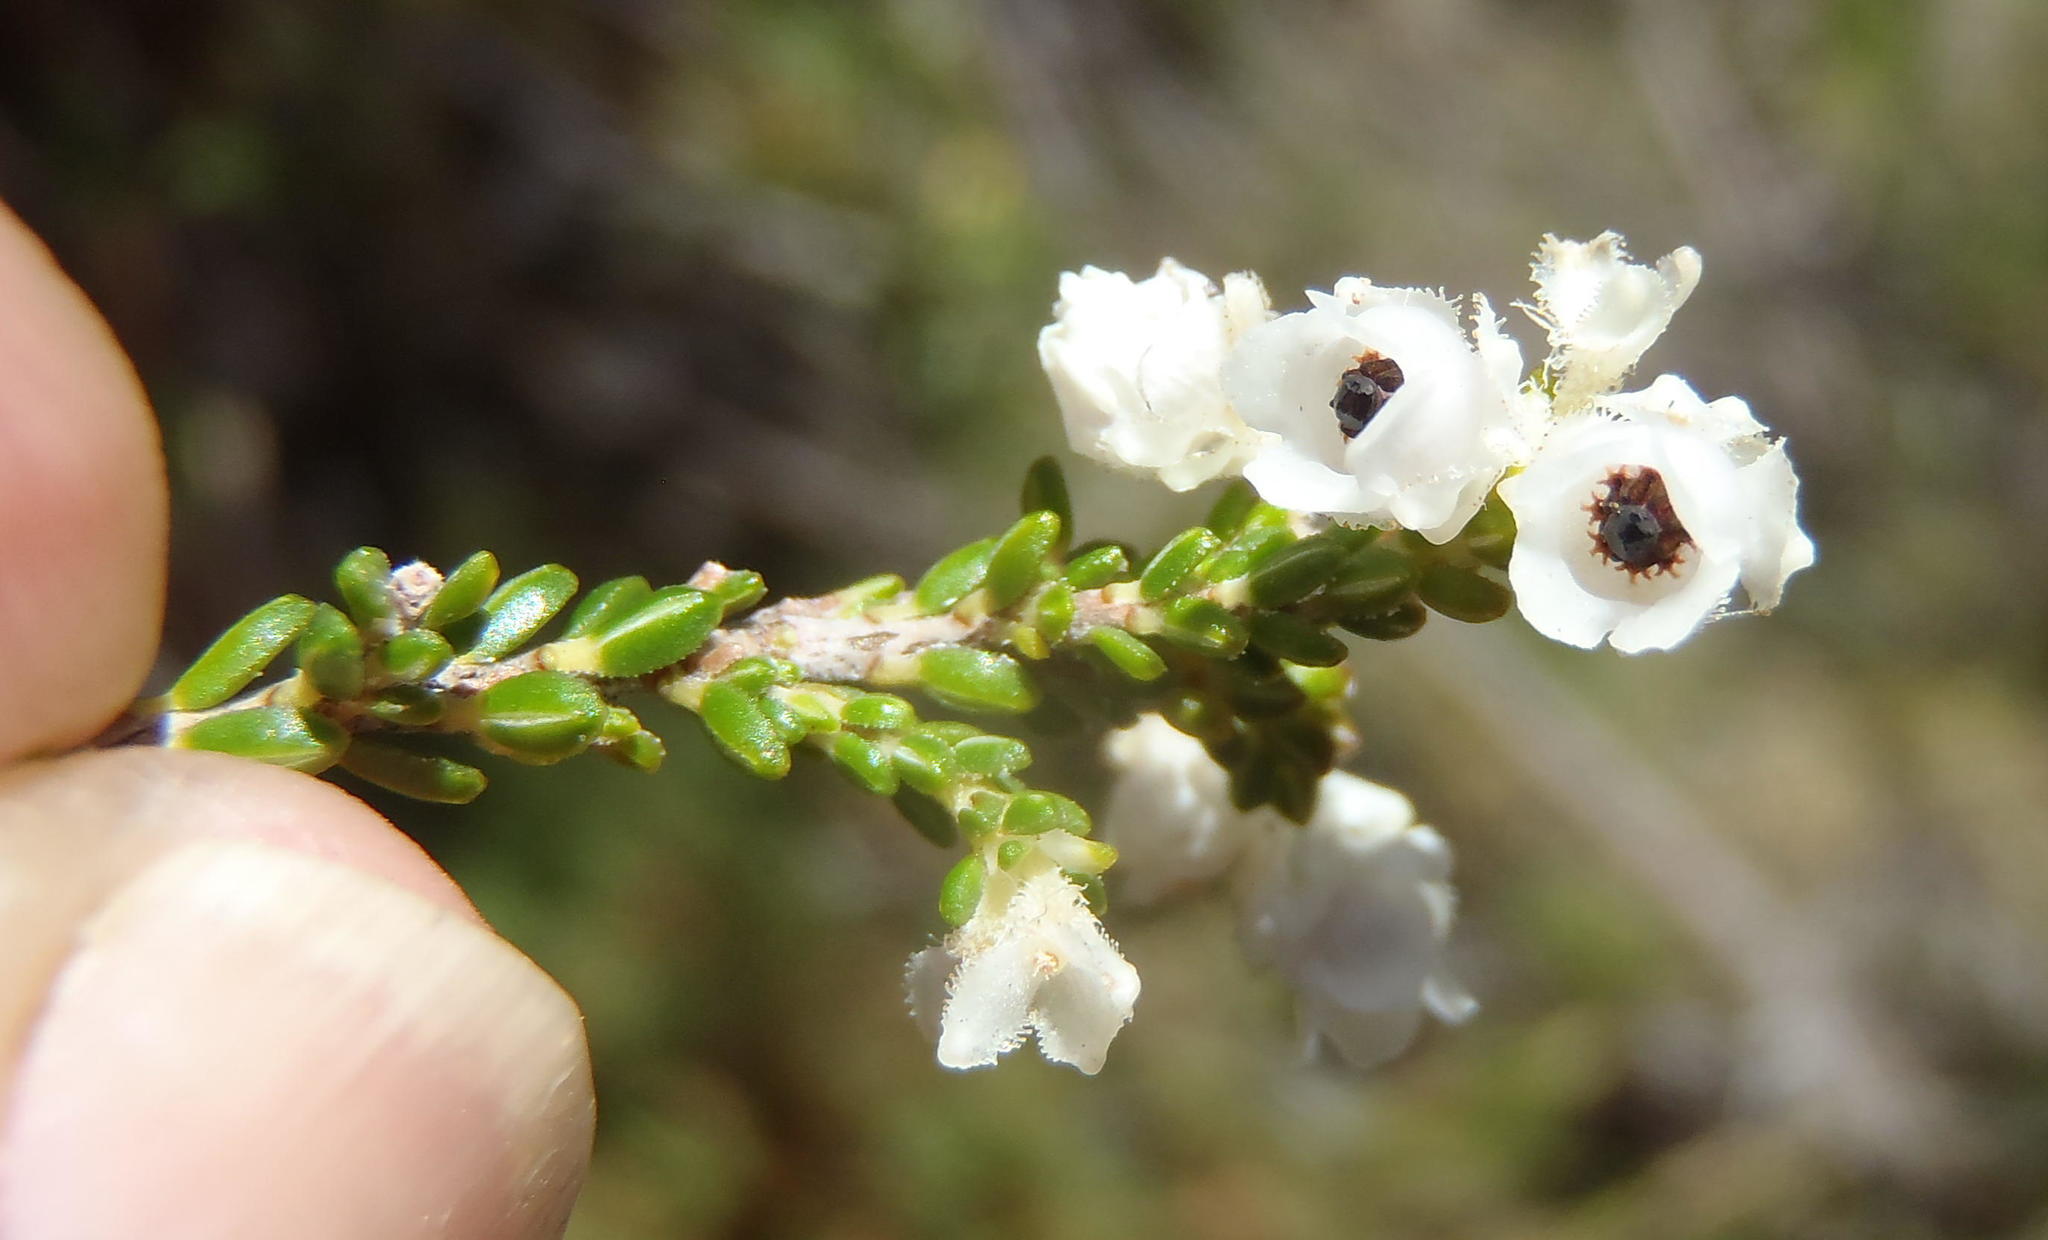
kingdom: Plantae
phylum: Tracheophyta
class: Magnoliopsida
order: Ericales
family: Ericaceae
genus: Erica
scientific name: Erica fimbriata
